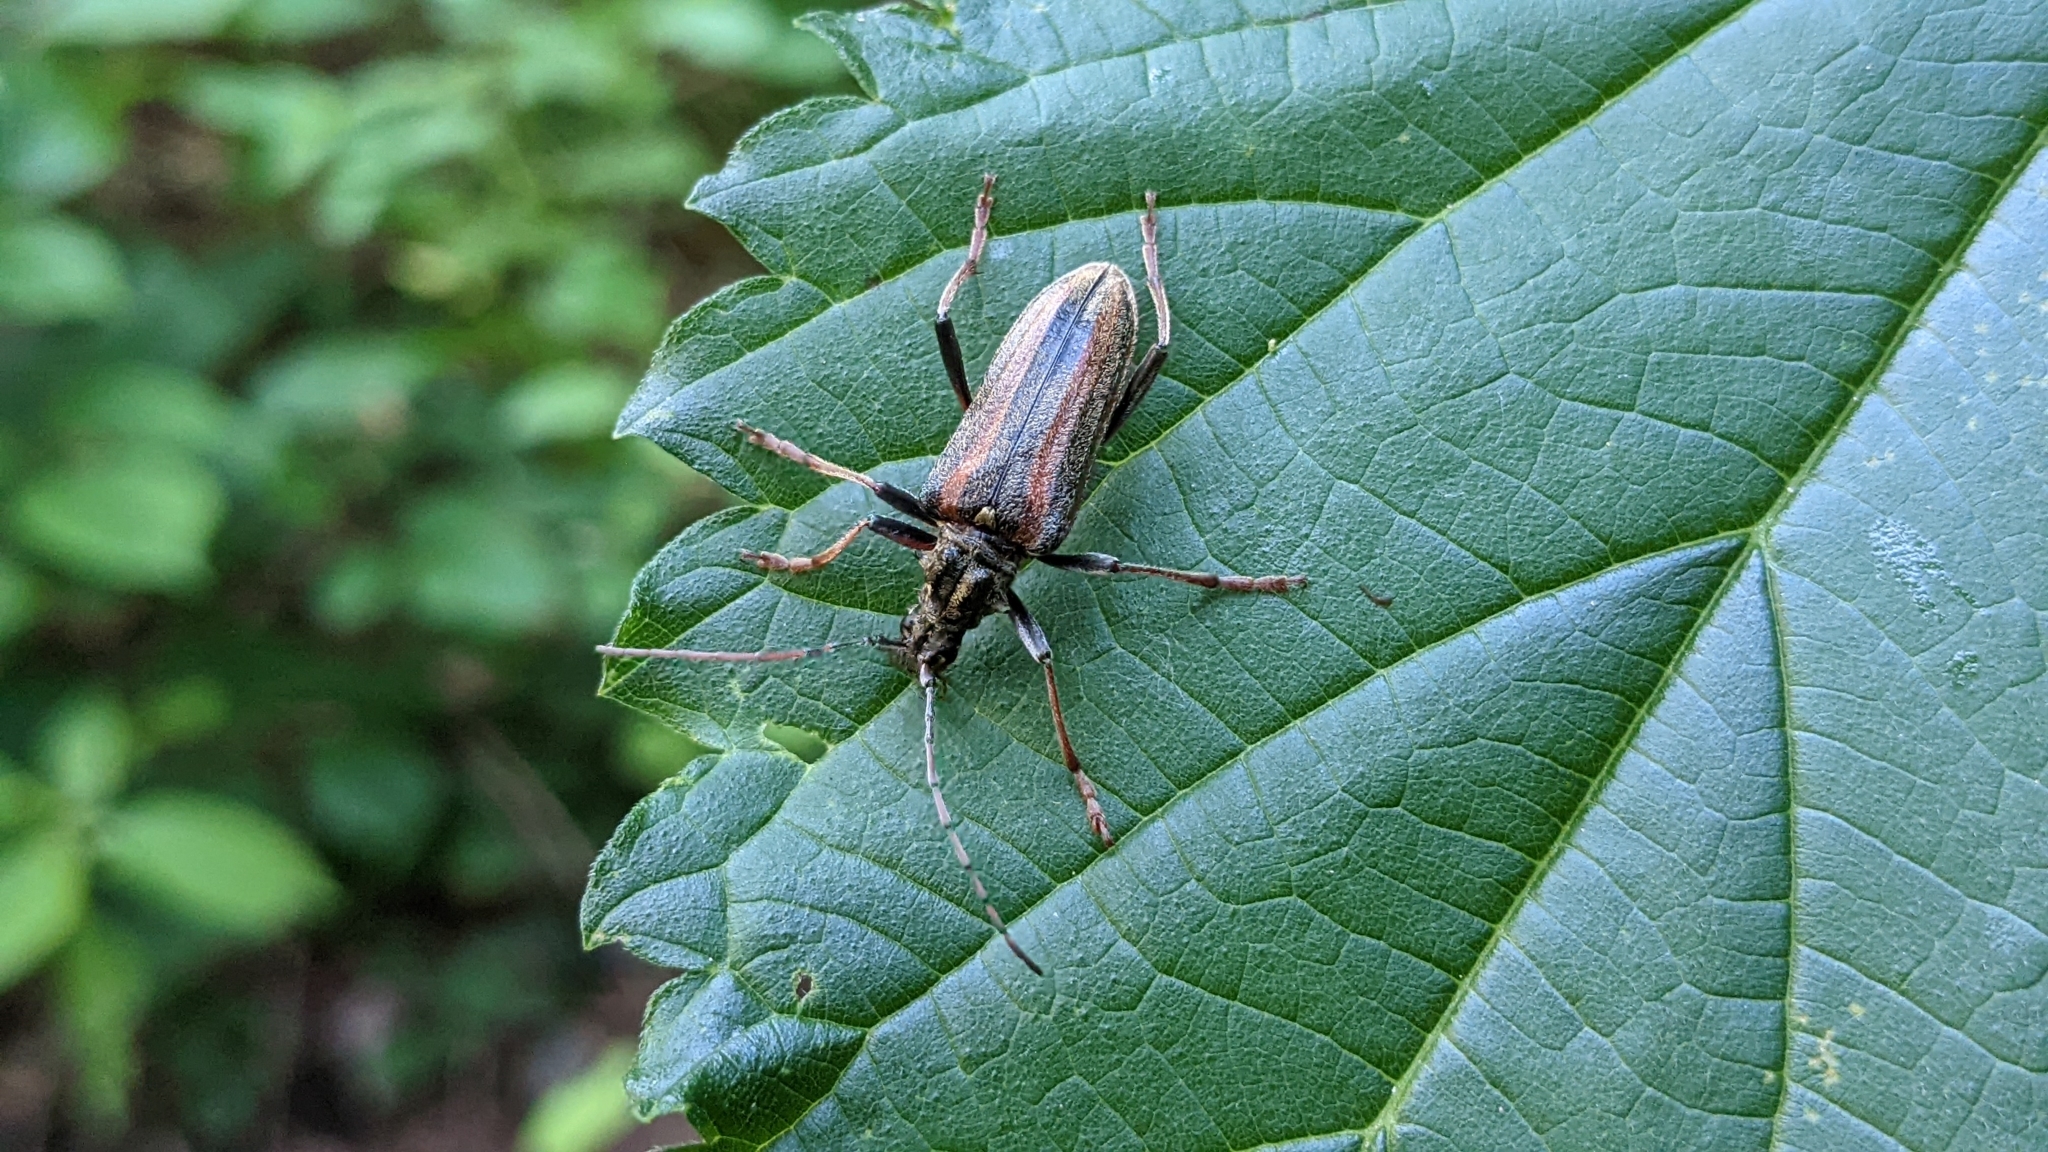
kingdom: Animalia
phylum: Arthropoda
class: Insecta
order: Coleoptera
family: Cerambycidae
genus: Oxymirus
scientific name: Oxymirus cursor
